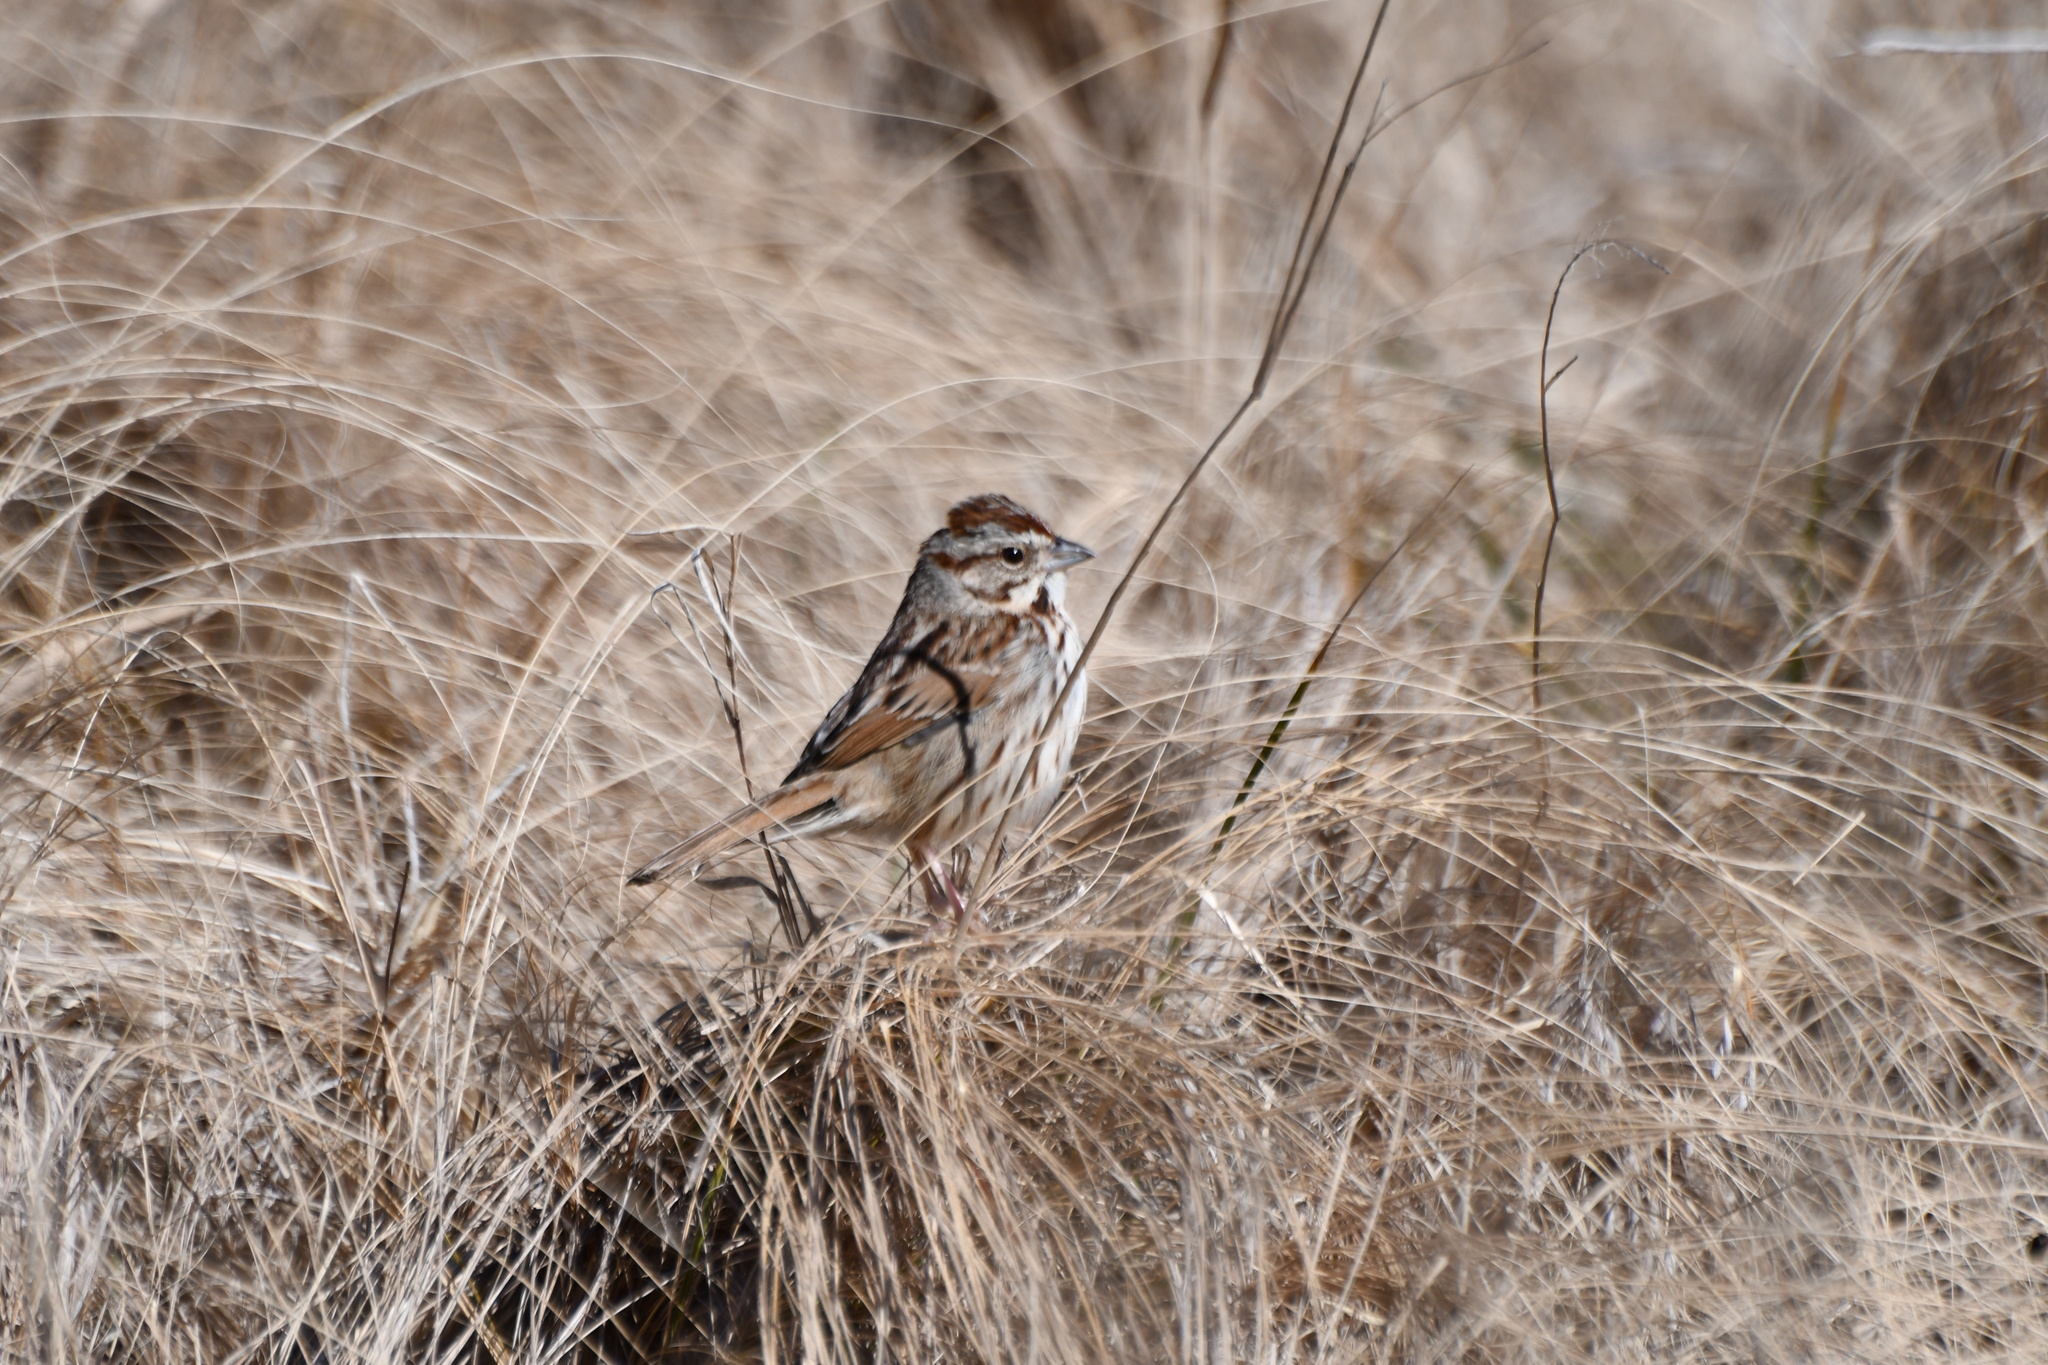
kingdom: Animalia
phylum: Chordata
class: Aves
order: Passeriformes
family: Passerellidae
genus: Melospiza
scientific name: Melospiza melodia
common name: Song sparrow
